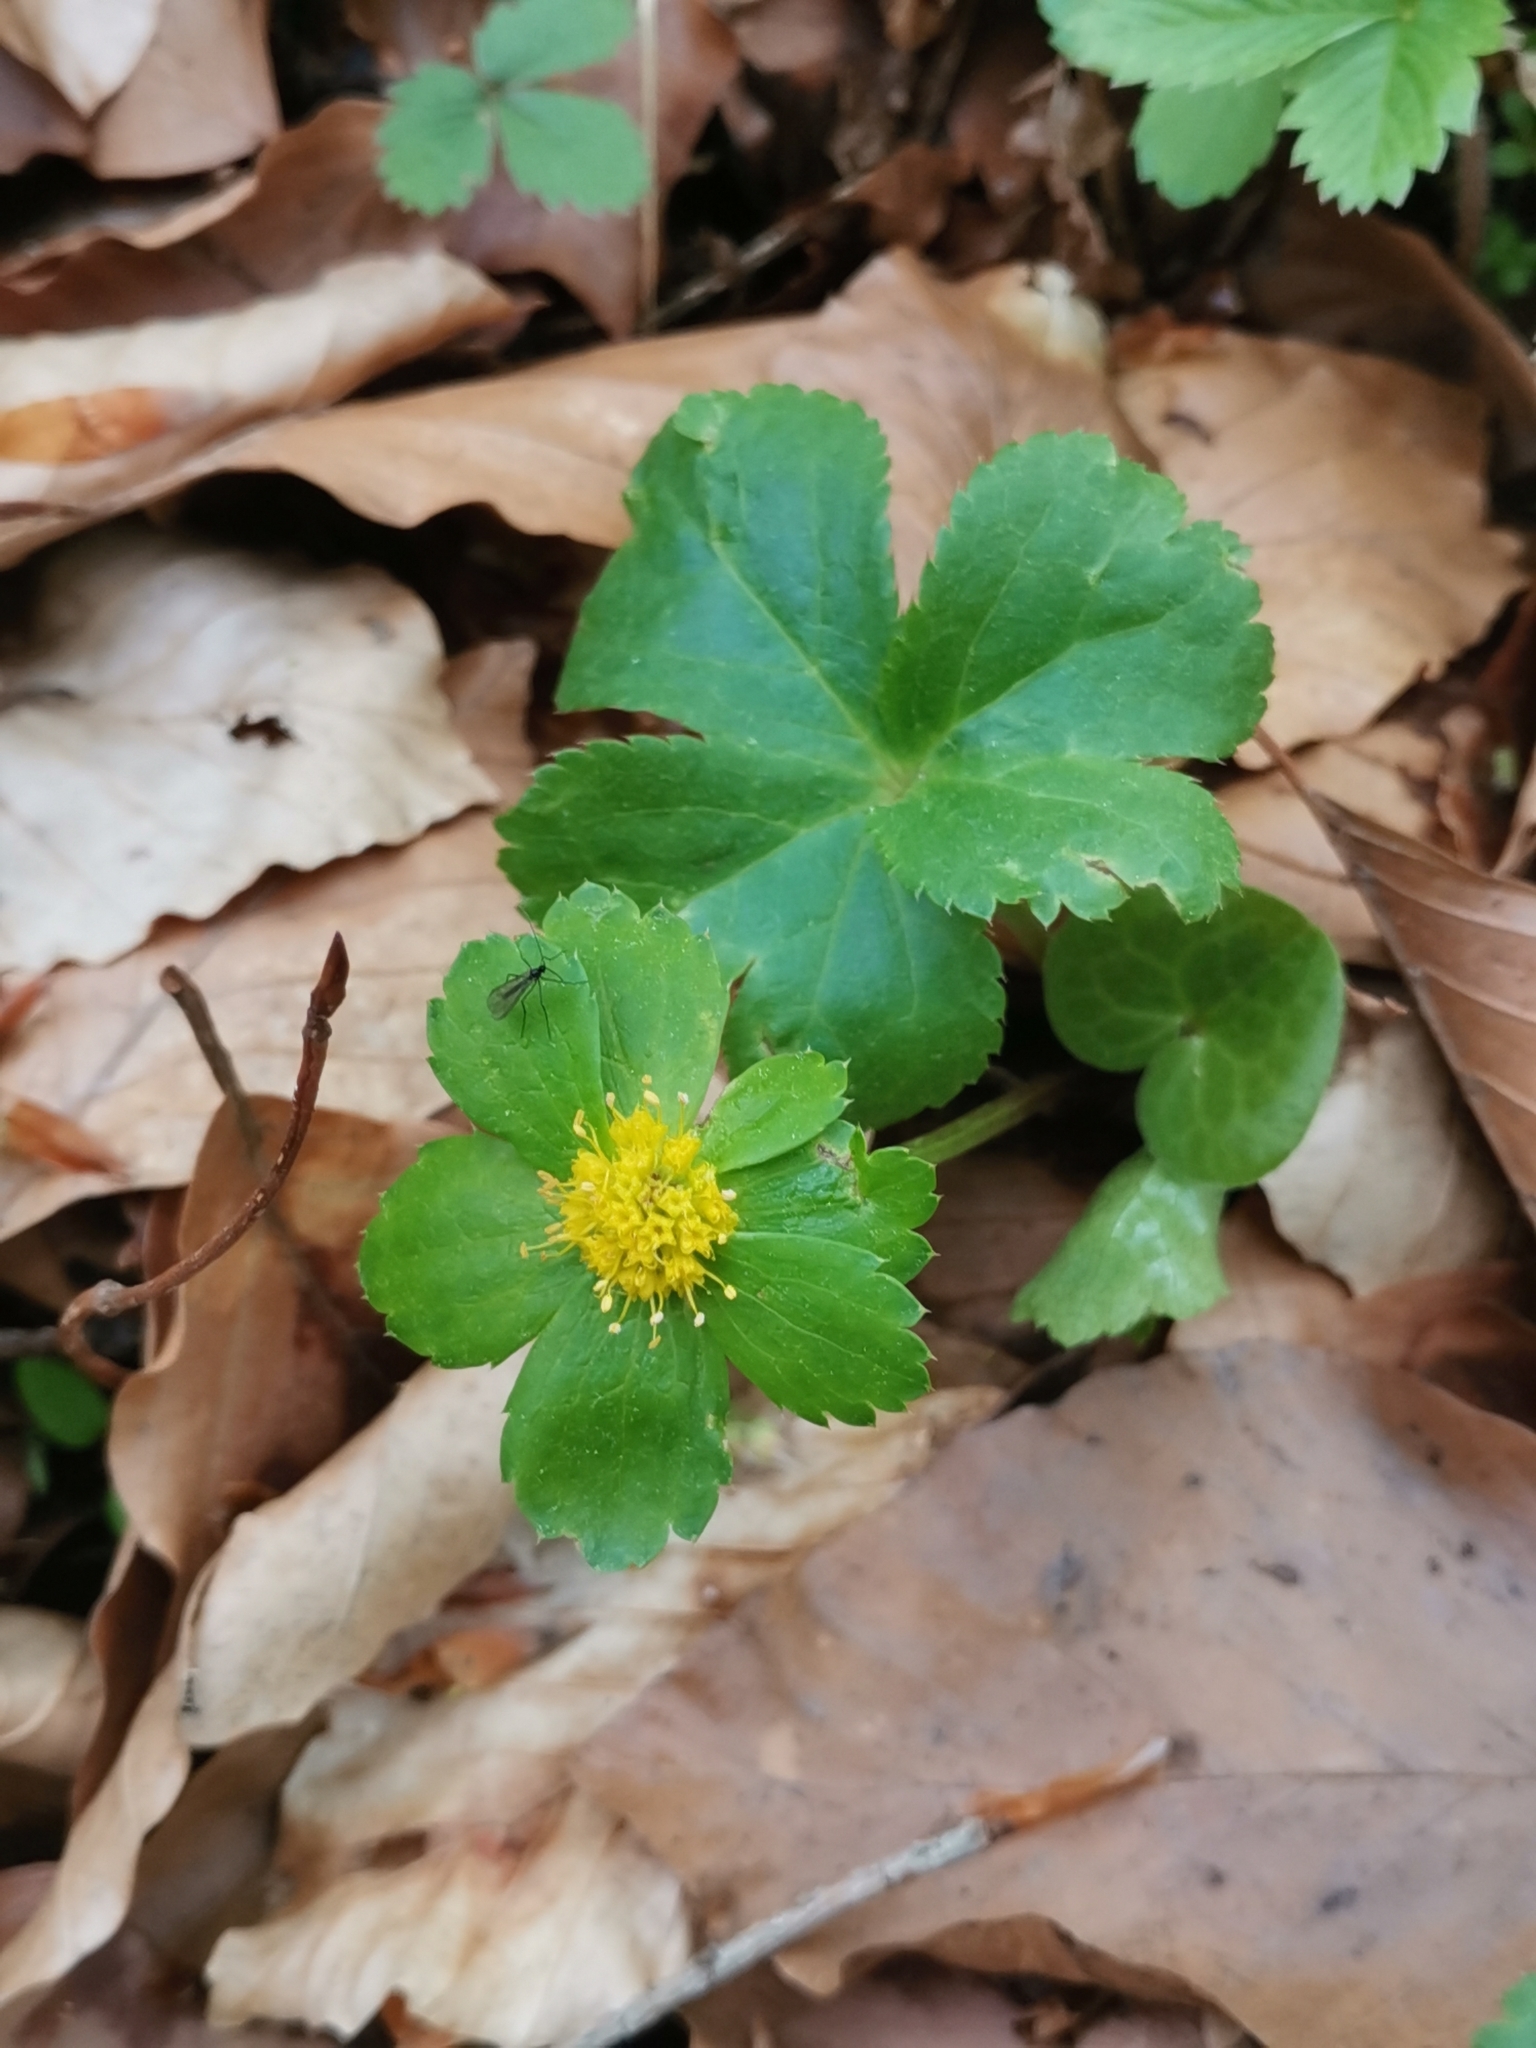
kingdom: Plantae
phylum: Tracheophyta
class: Magnoliopsida
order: Apiales
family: Apiaceae
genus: Sanicula
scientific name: Sanicula epipactis
